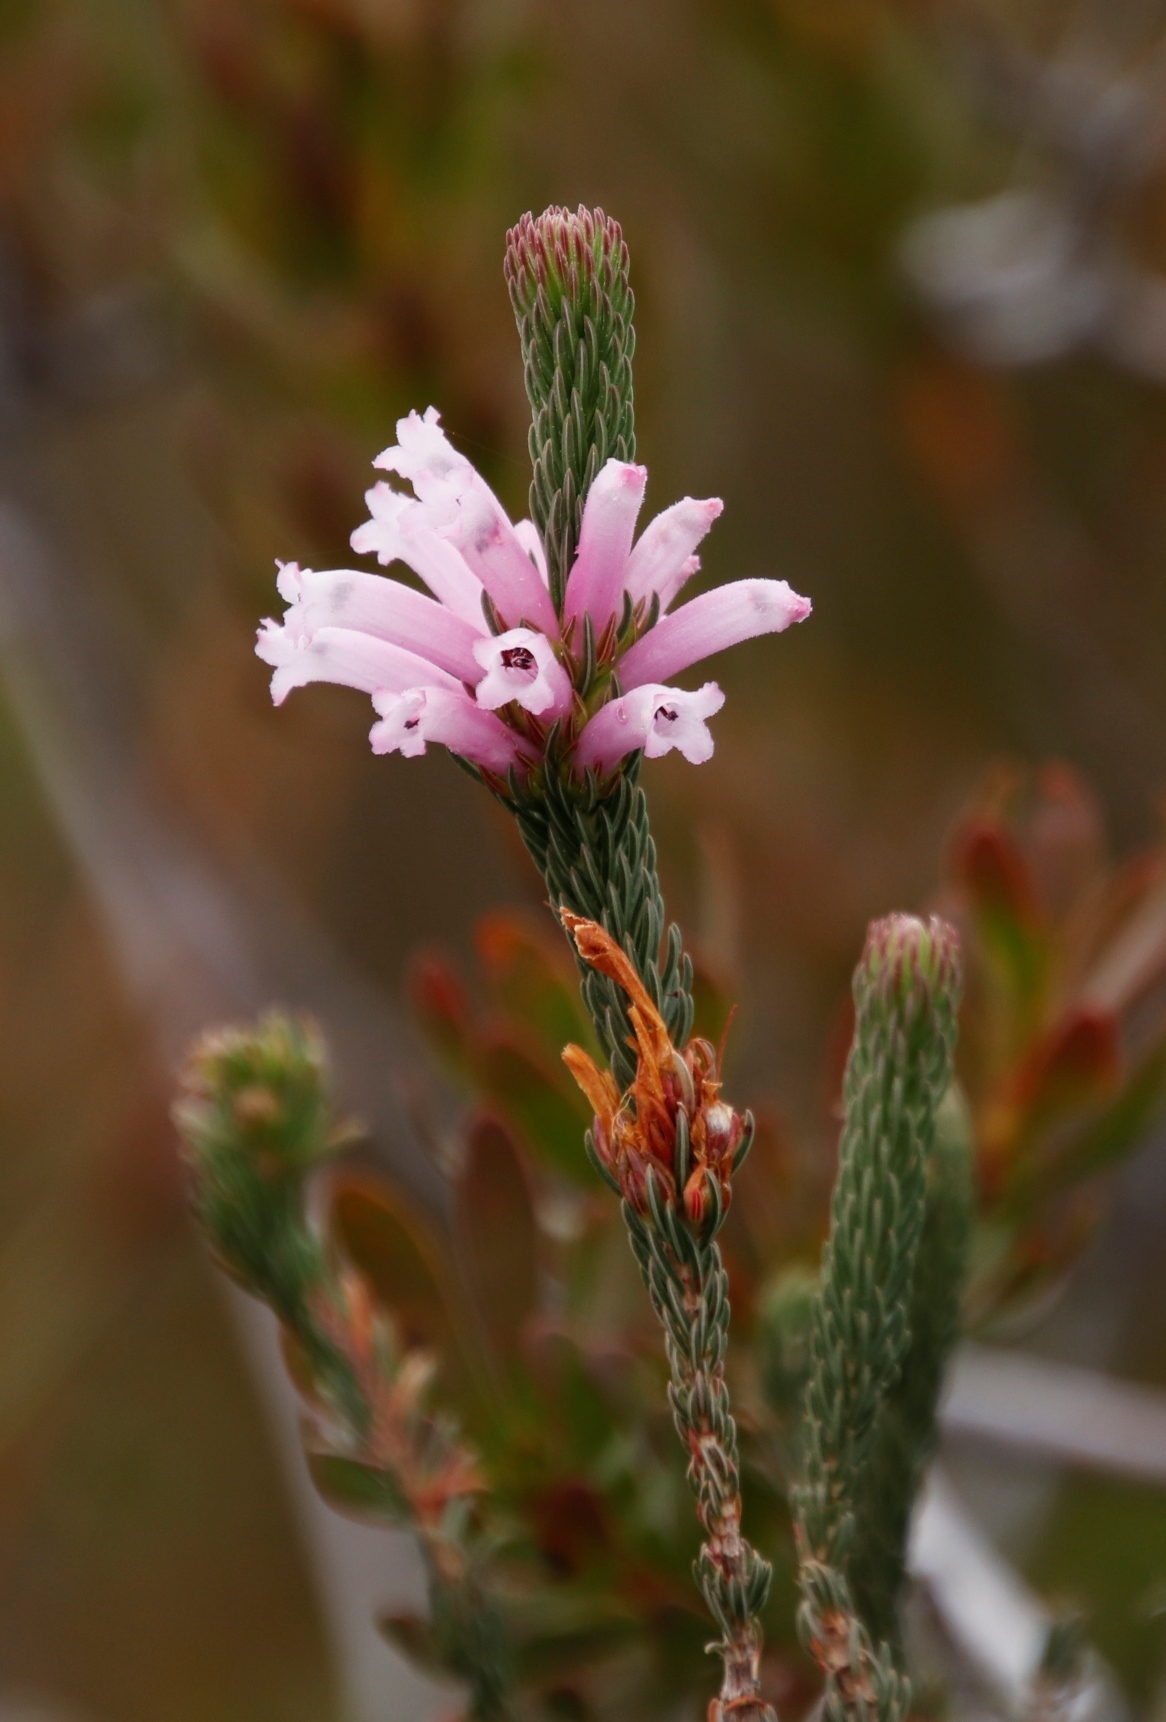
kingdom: Plantae
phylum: Tracheophyta
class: Magnoliopsida
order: Ericales
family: Ericaceae
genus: Erica
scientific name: Erica viscaria
